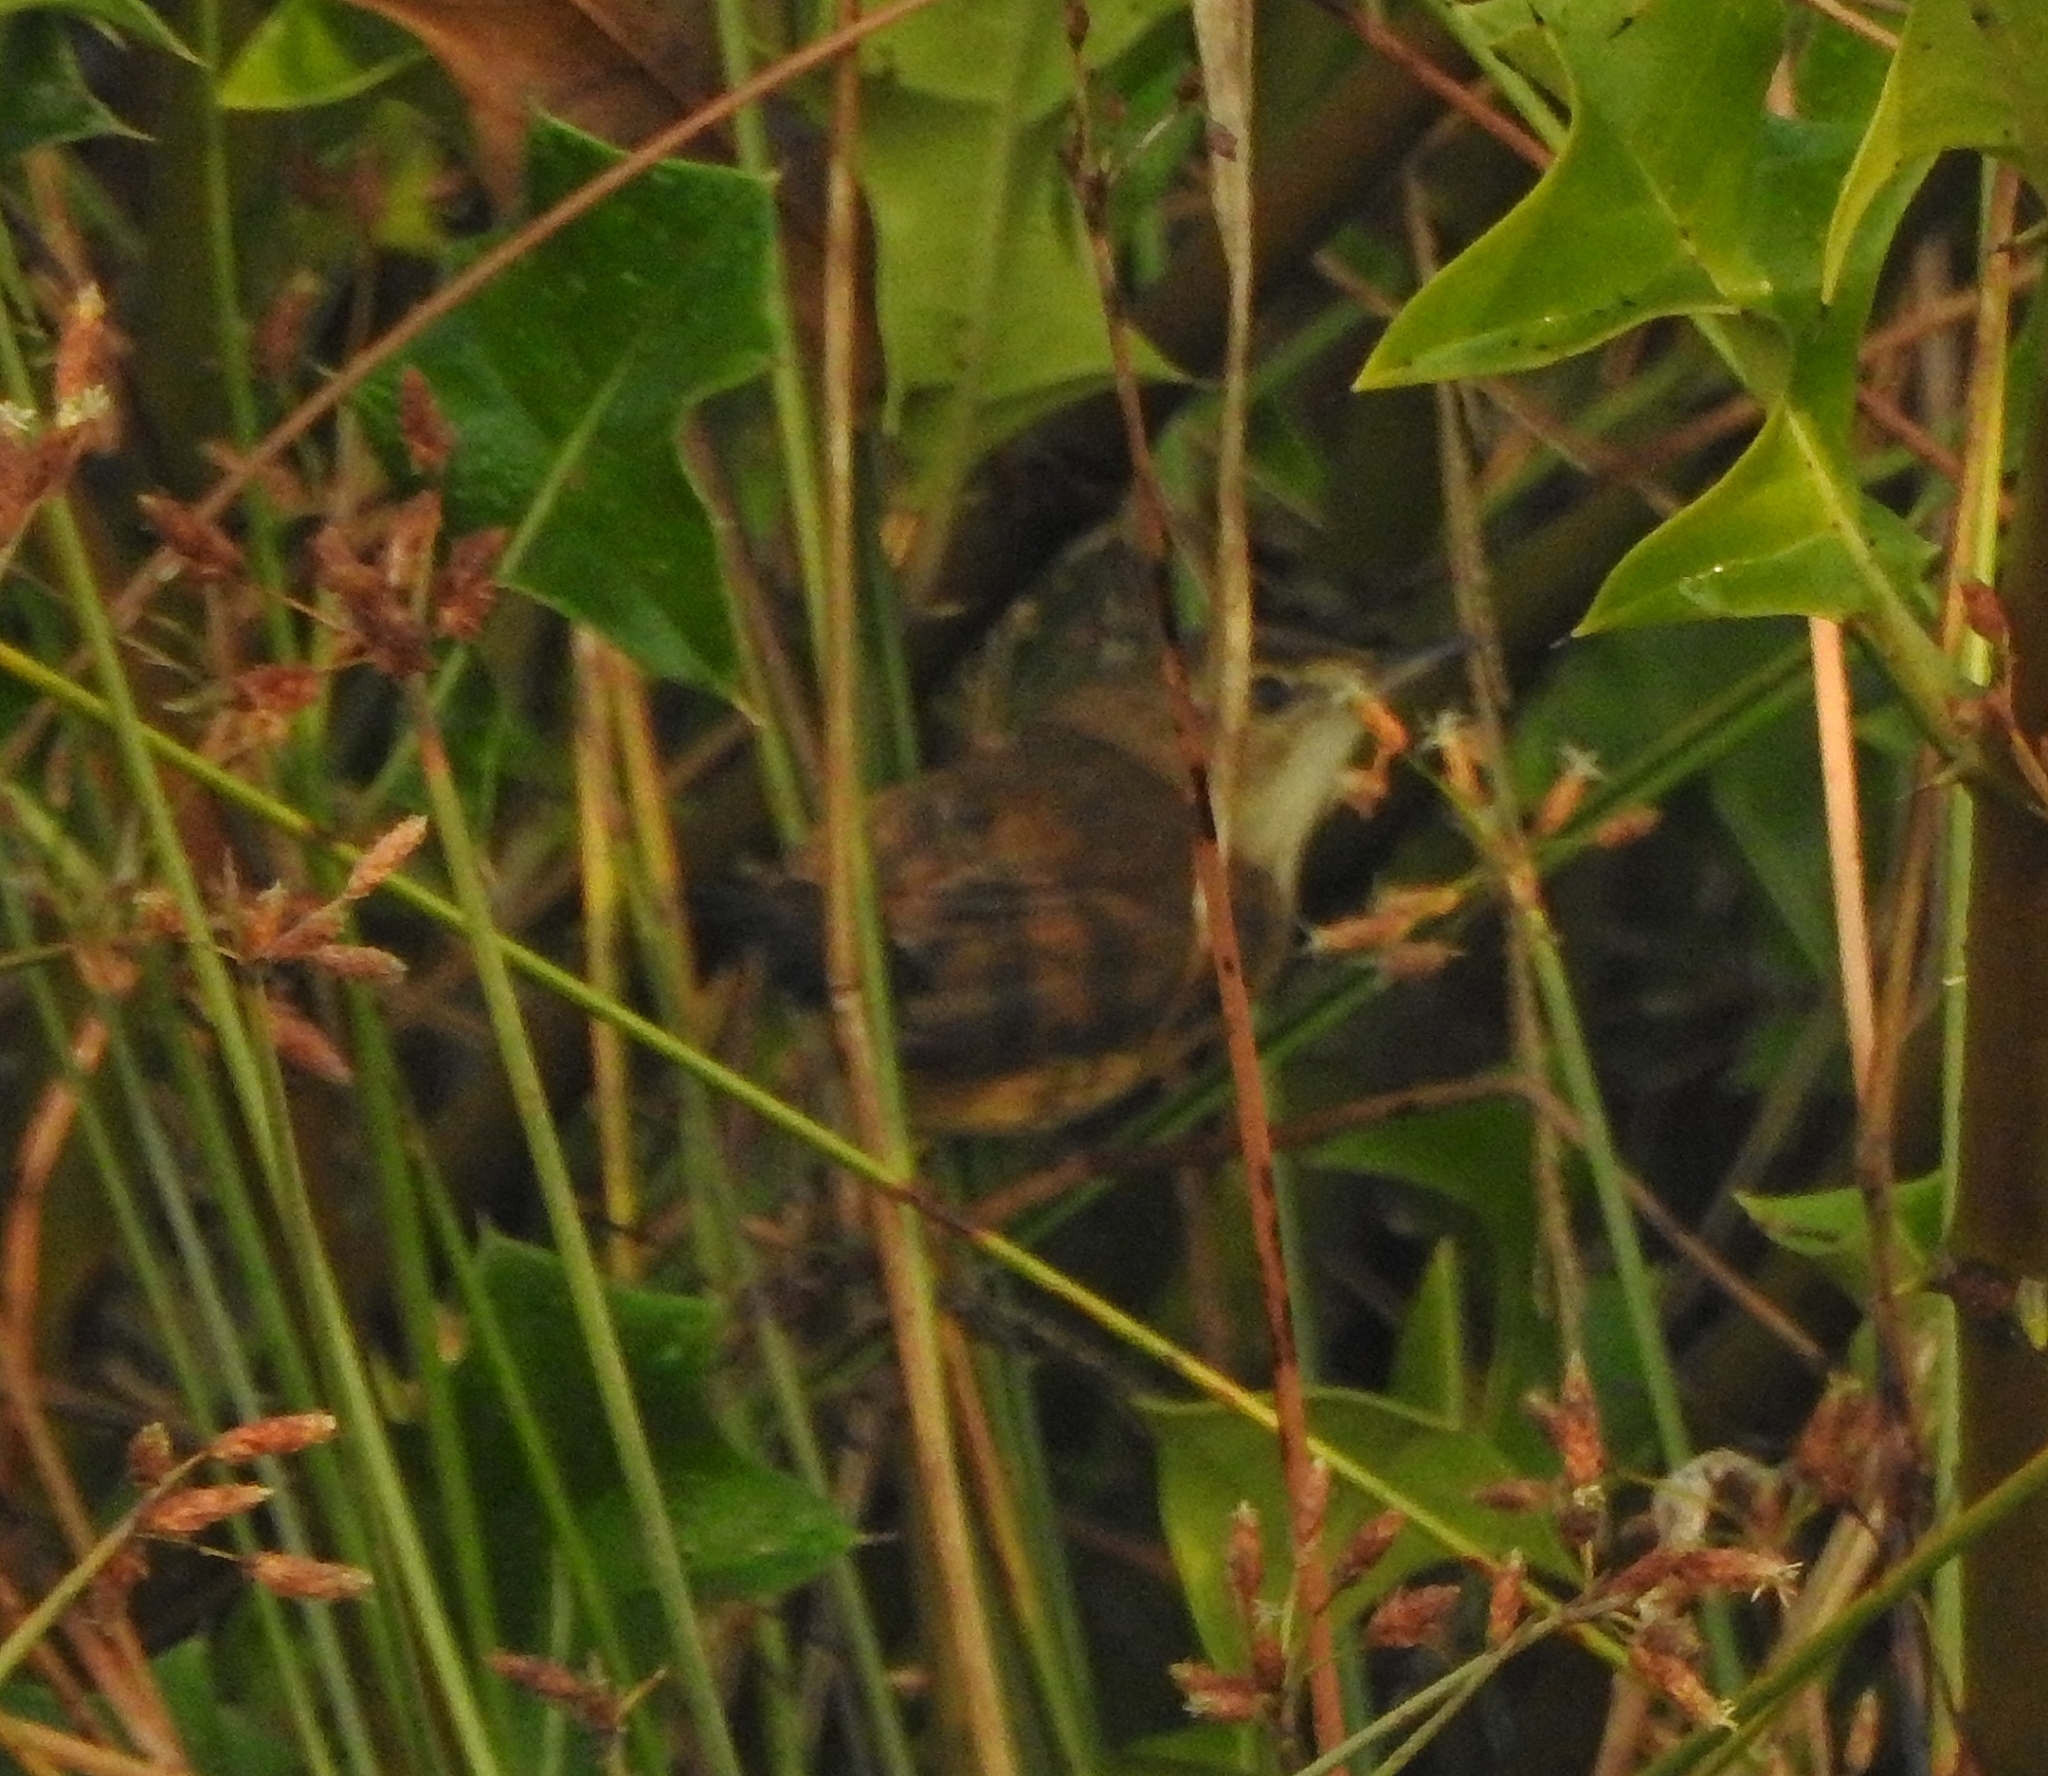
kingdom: Animalia
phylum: Chordata
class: Aves
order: Passeriformes
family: Cisticolidae
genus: Prinia
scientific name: Prinia inornata
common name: Plain prinia
